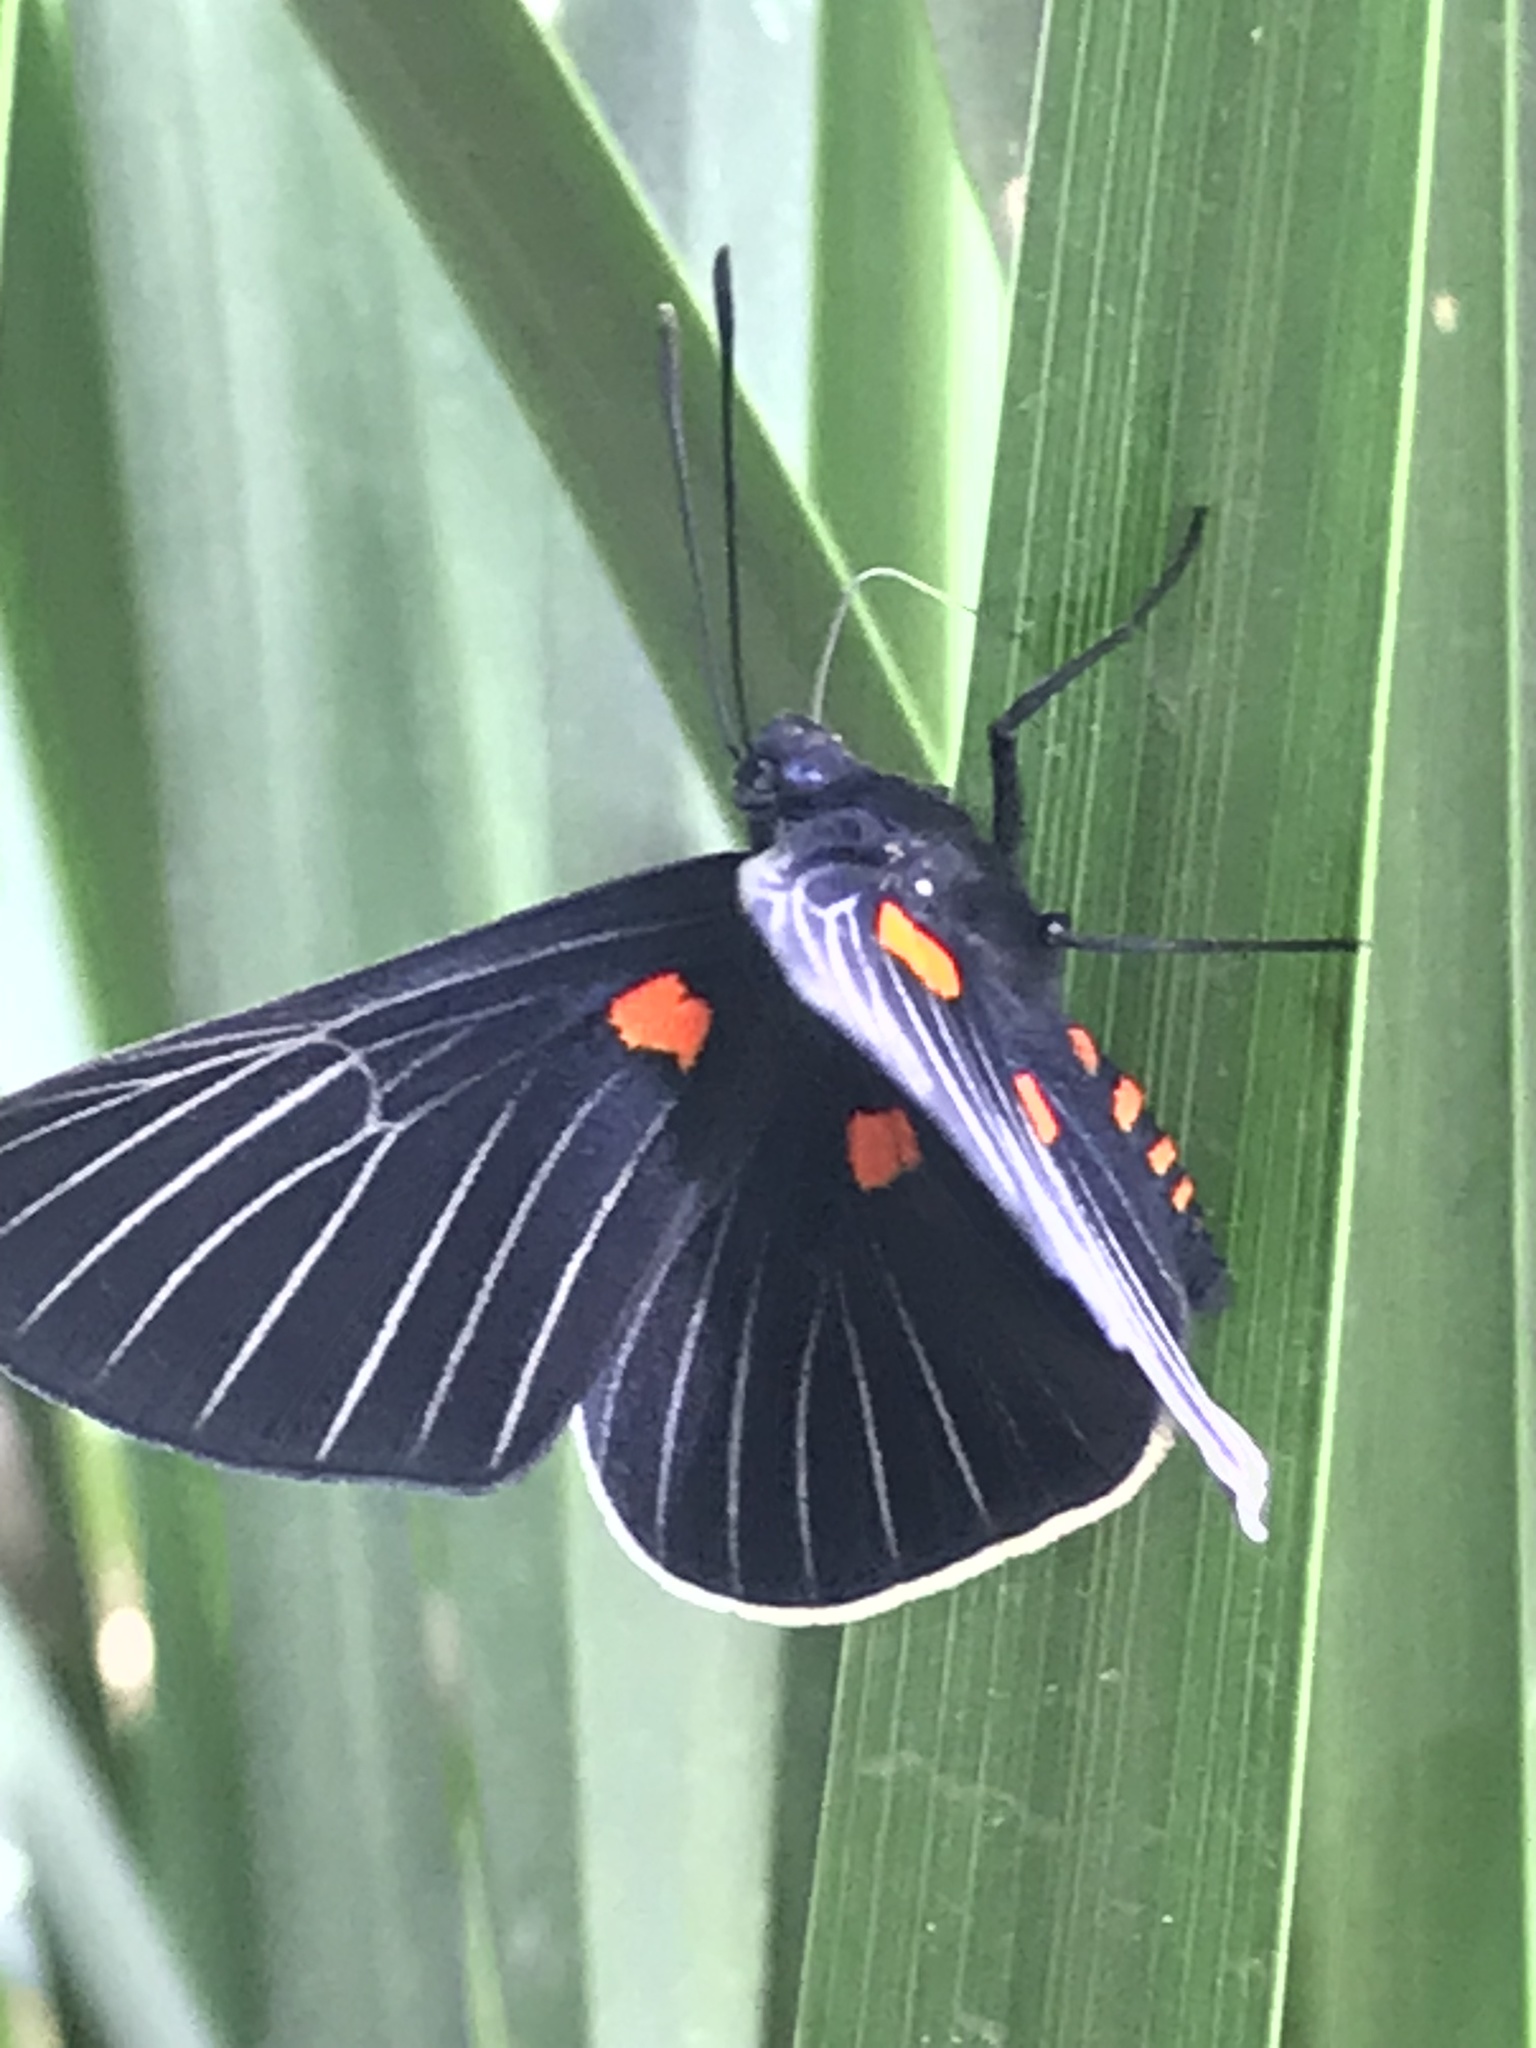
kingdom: Animalia
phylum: Arthropoda
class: Insecta
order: Lepidoptera
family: Lycaenidae
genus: Melanis
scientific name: Melanis
